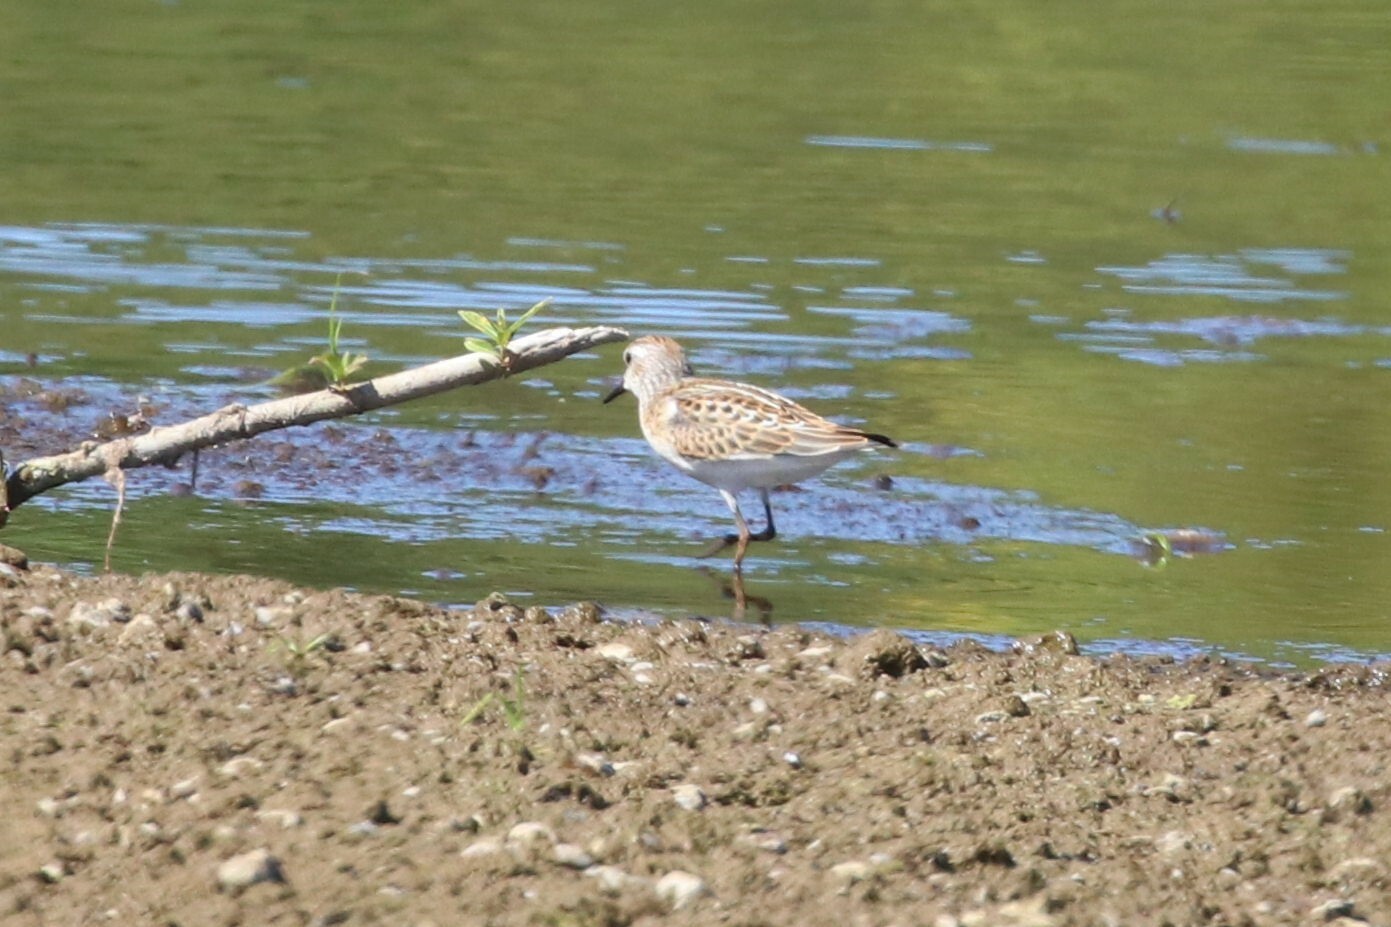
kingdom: Animalia
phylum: Chordata
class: Aves
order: Charadriiformes
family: Scolopacidae
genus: Calidris
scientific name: Calidris minuta
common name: Little stint
